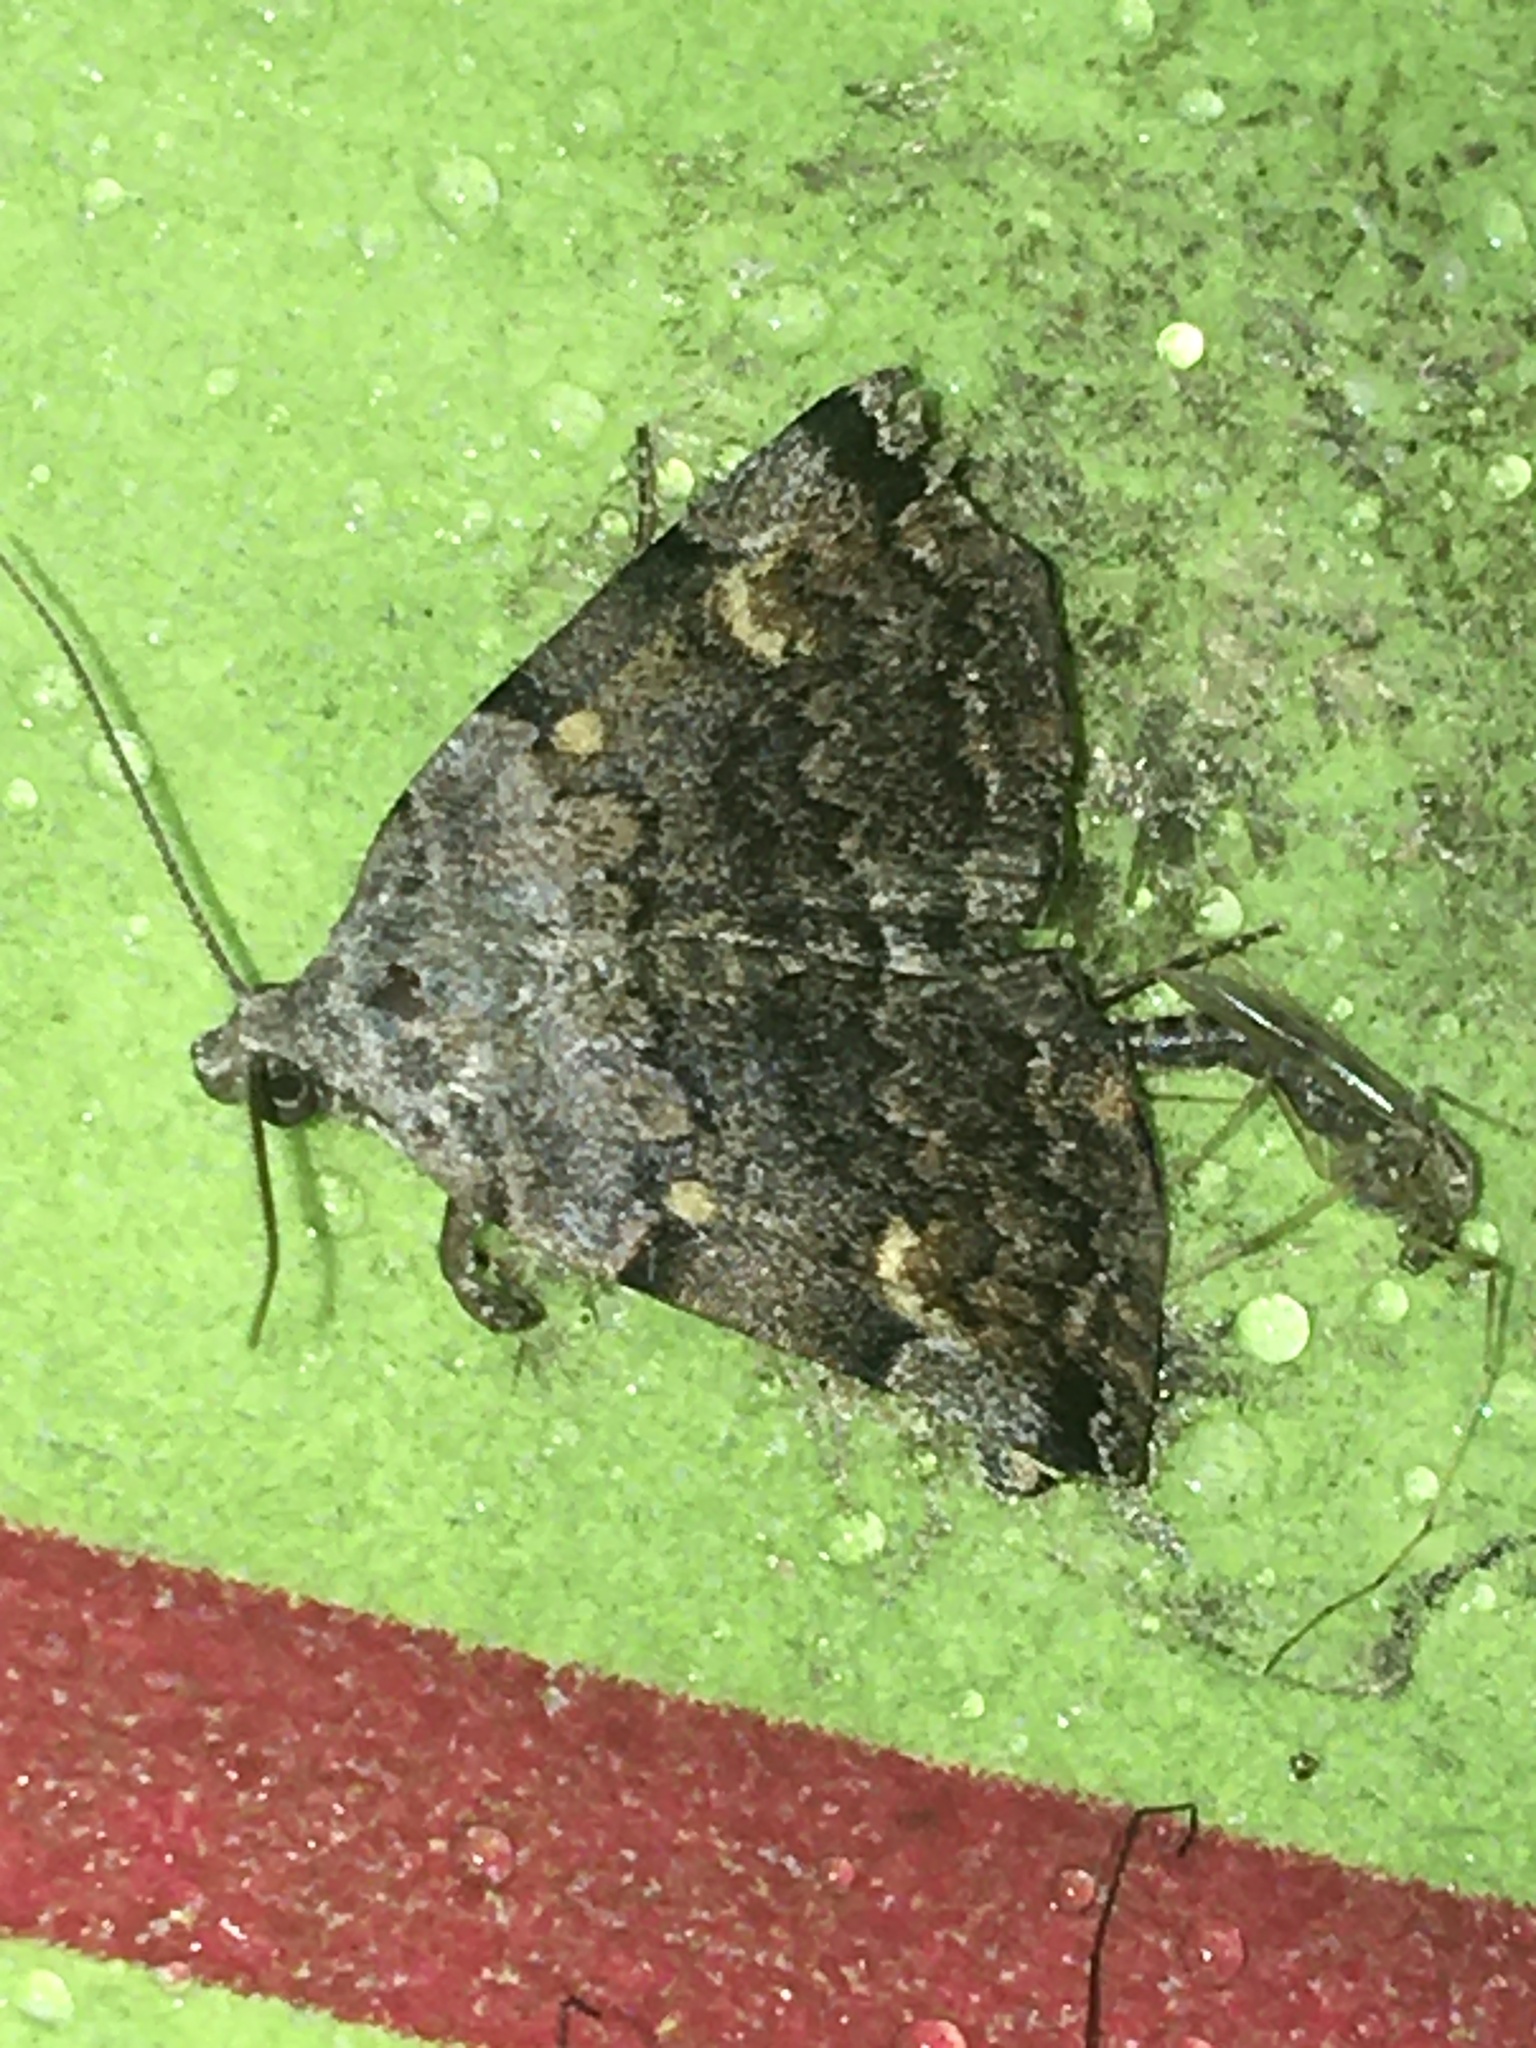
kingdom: Animalia
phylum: Arthropoda
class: Insecta
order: Lepidoptera
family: Erebidae
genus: Idia
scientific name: Idia americalis
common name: American idia moth
